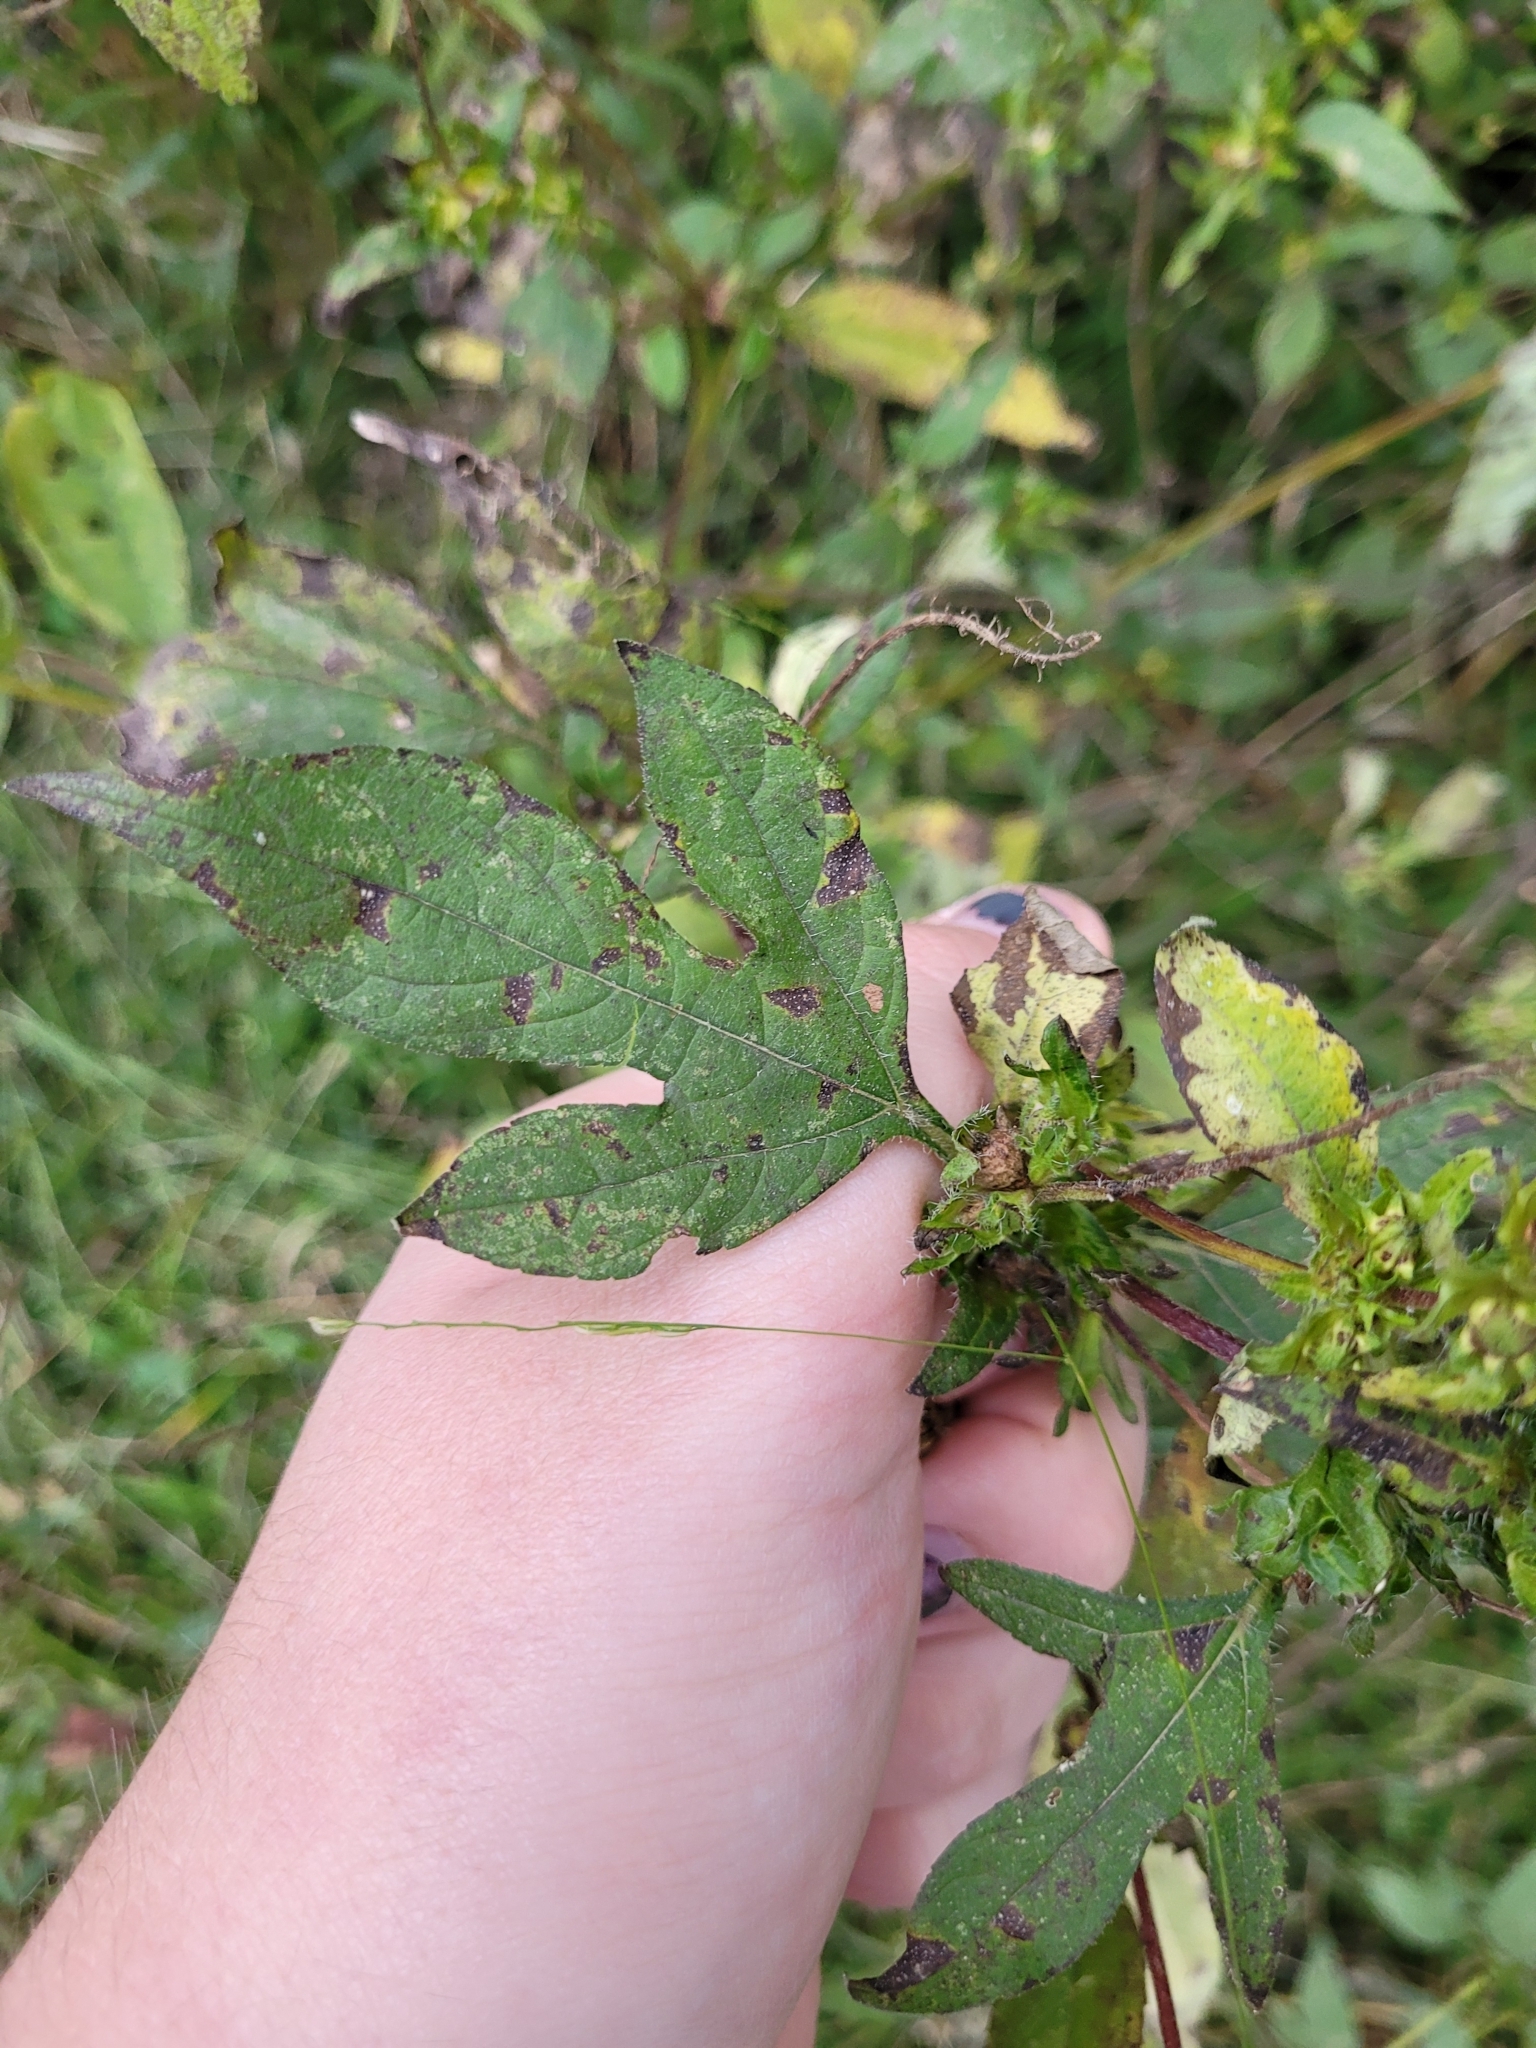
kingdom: Plantae
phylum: Tracheophyta
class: Magnoliopsida
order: Asterales
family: Asteraceae
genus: Ambrosia
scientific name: Ambrosia trifida
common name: Giant ragweed
